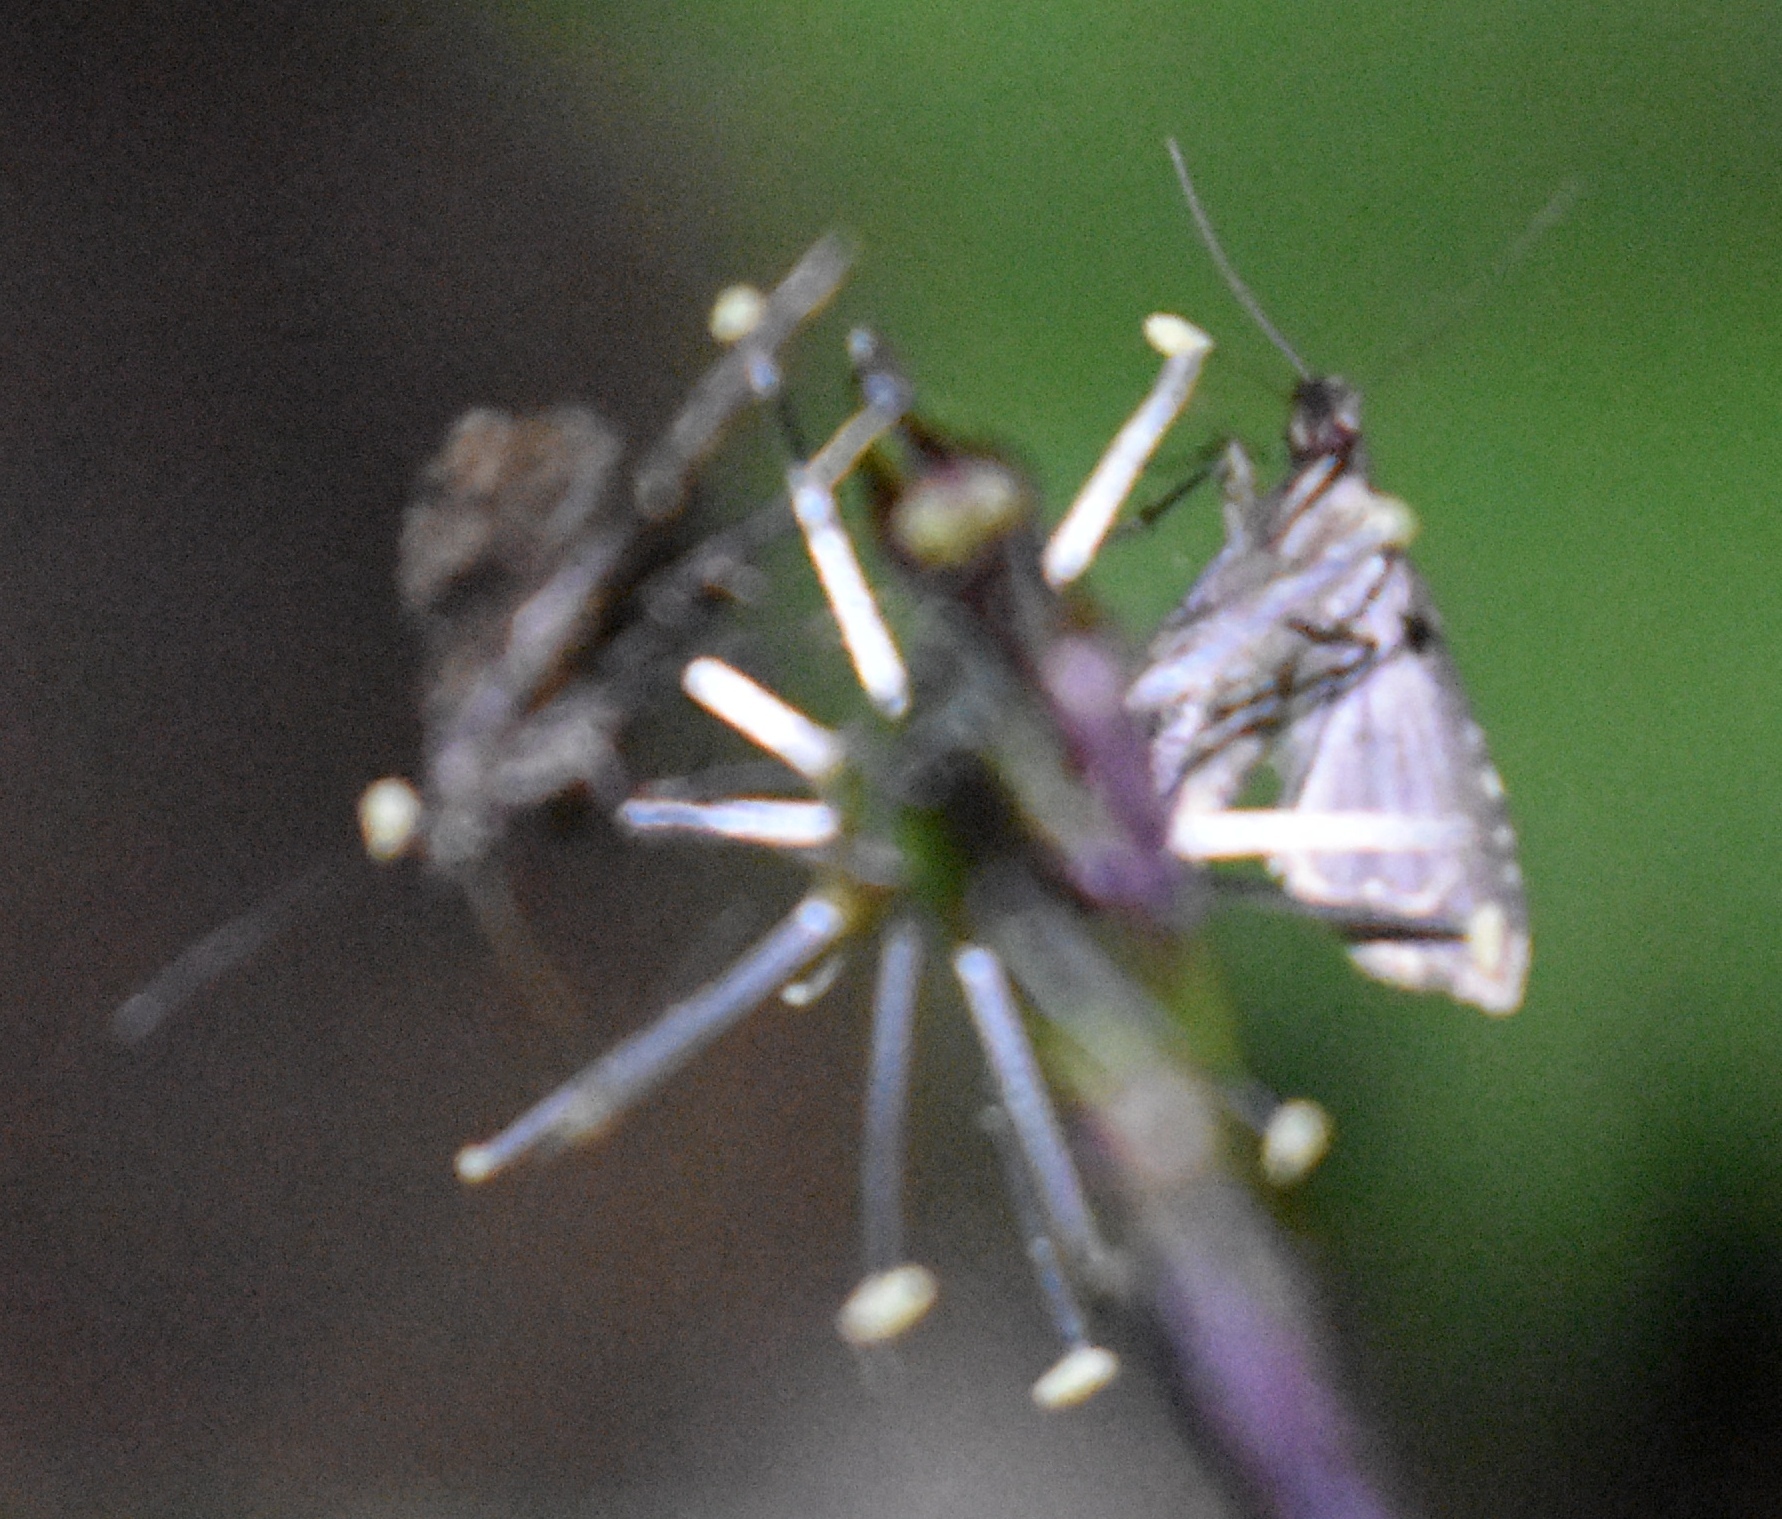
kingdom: Animalia
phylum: Arthropoda
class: Insecta
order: Lepidoptera
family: Erebidae
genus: Pseudoschrankia
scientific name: Pseudoschrankia brevipalpis
